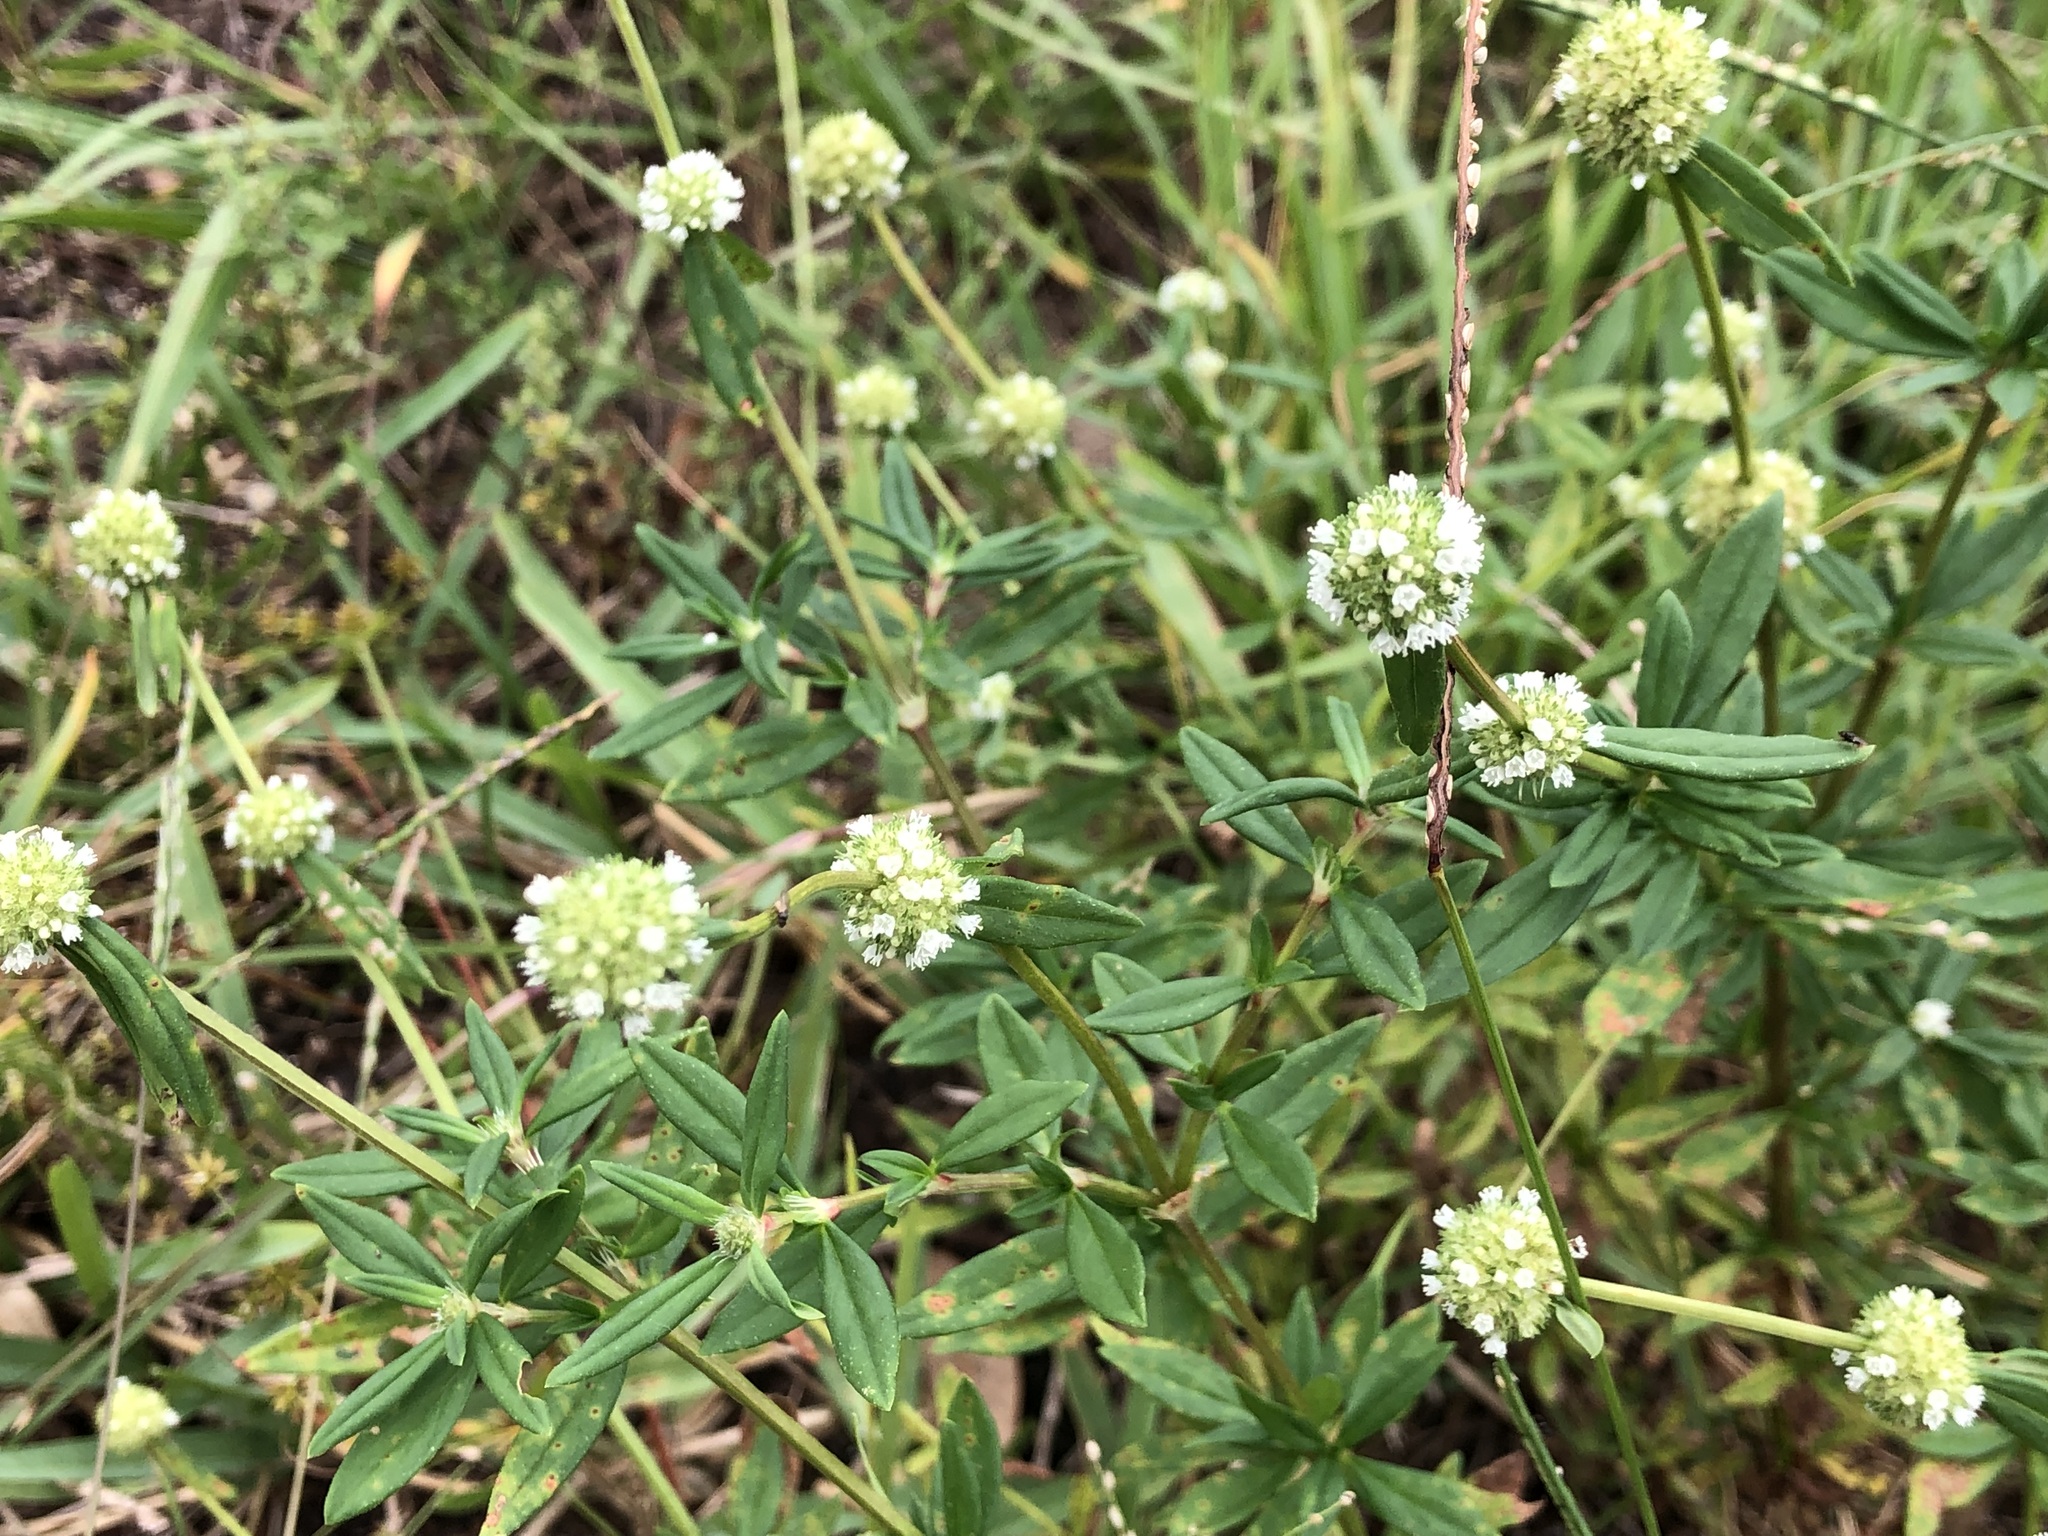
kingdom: Plantae
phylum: Tracheophyta
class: Magnoliopsida
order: Gentianales
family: Rubiaceae
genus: Spermacoce
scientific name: Spermacoce verticillata
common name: Shrubby false buttonweed
